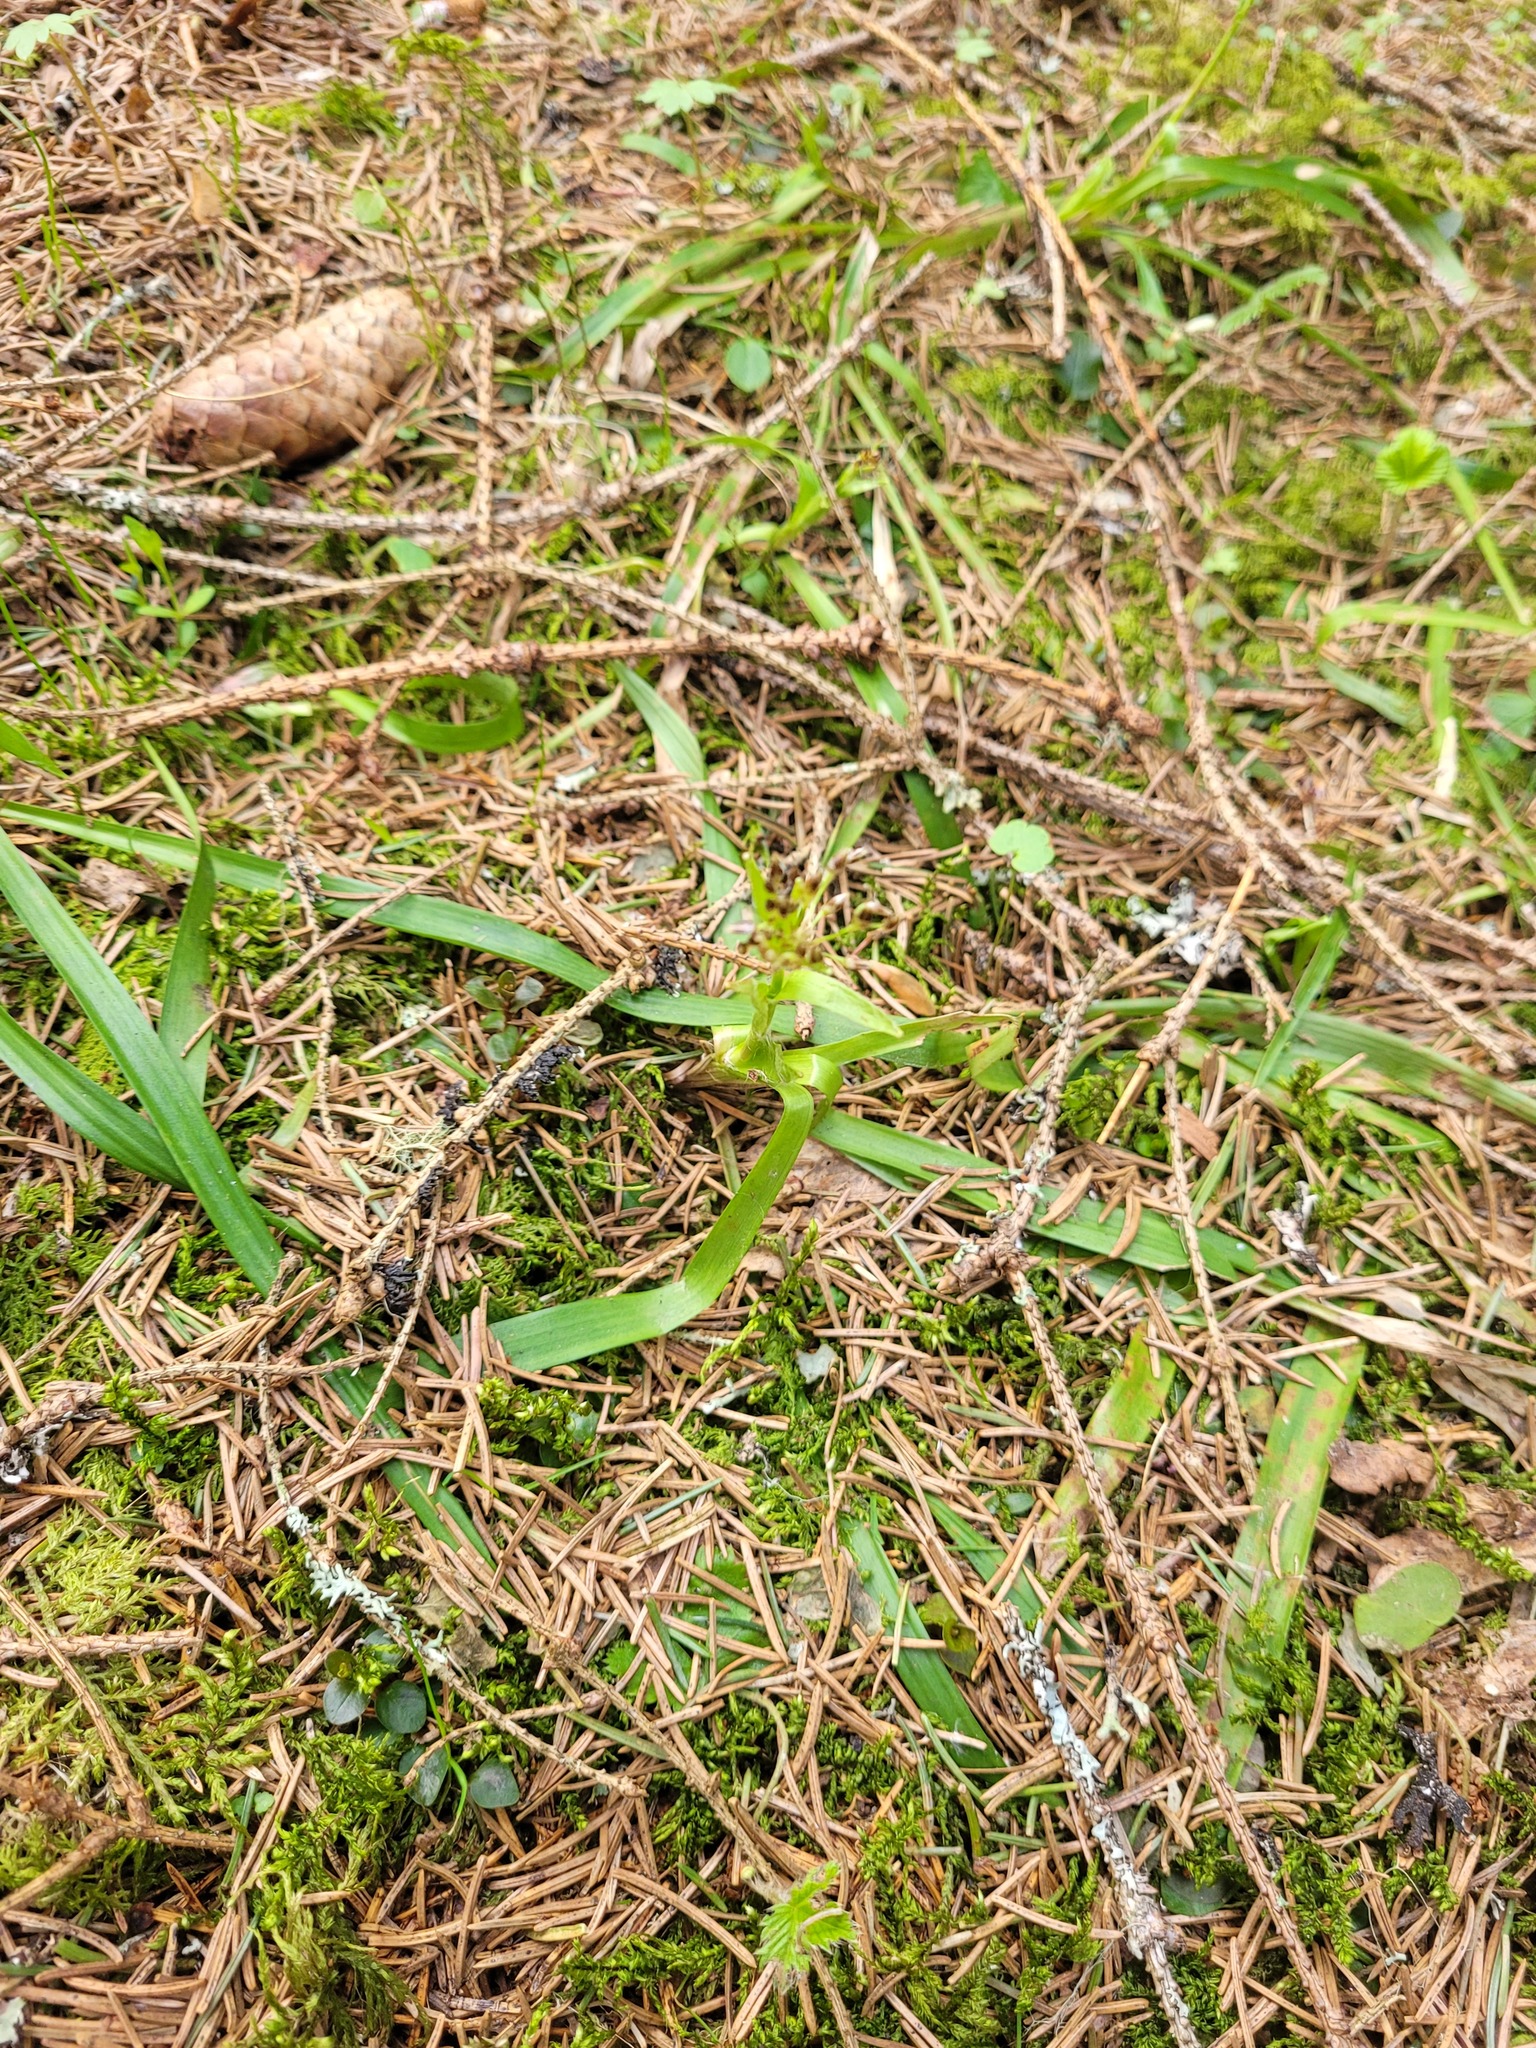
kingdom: Plantae
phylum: Tracheophyta
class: Liliopsida
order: Poales
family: Juncaceae
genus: Luzula
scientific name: Luzula pilosa
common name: Hairy wood-rush
